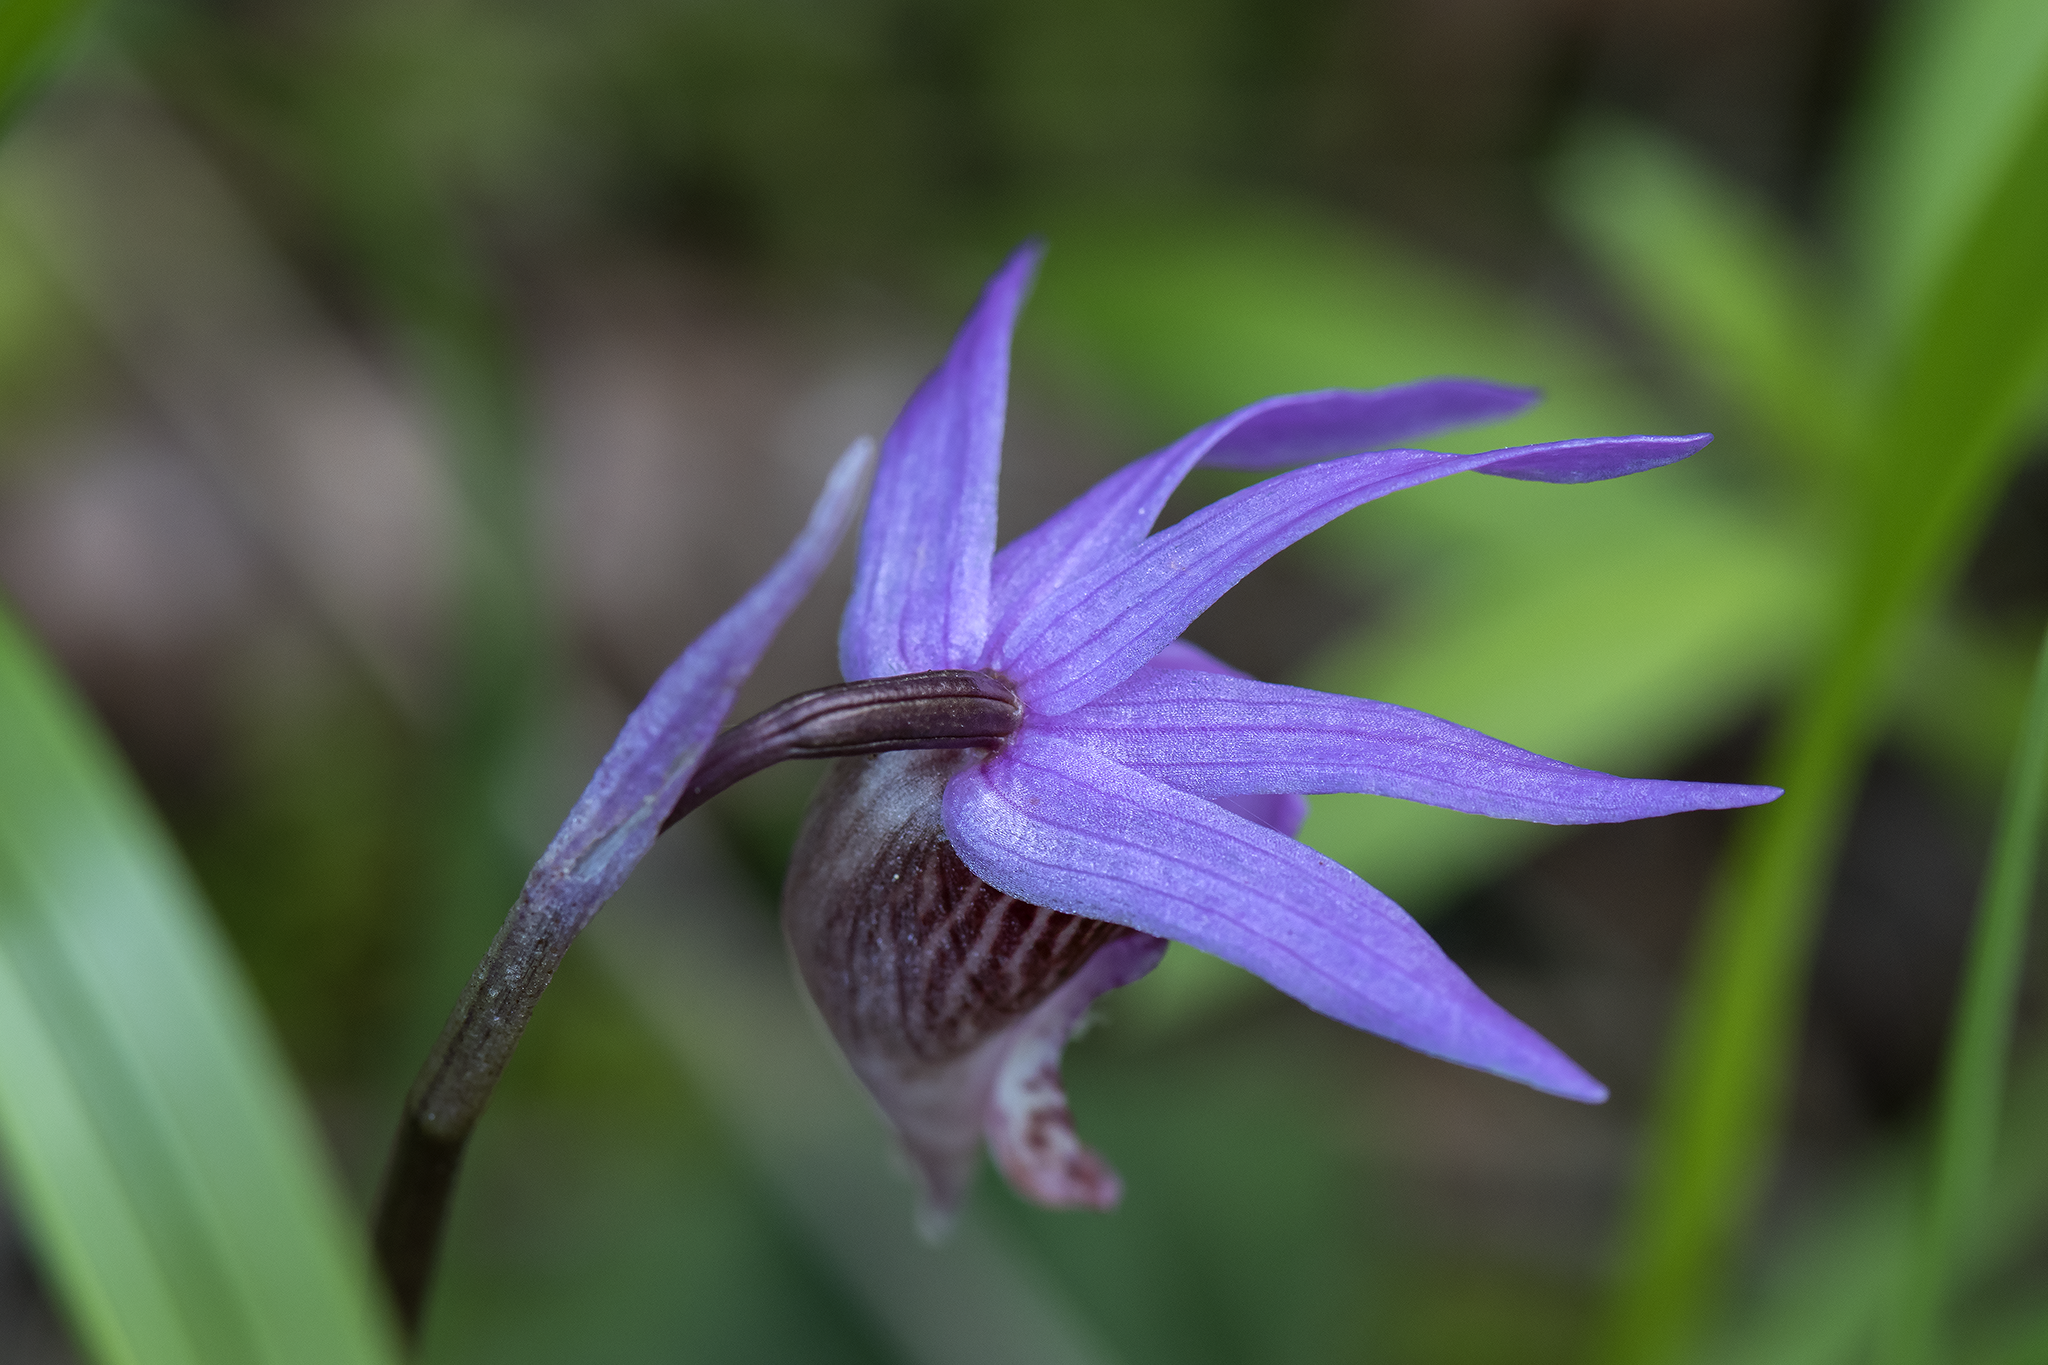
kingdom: Plantae
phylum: Tracheophyta
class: Liliopsida
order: Asparagales
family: Orchidaceae
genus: Calypso
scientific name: Calypso bulbosa
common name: Calypso
